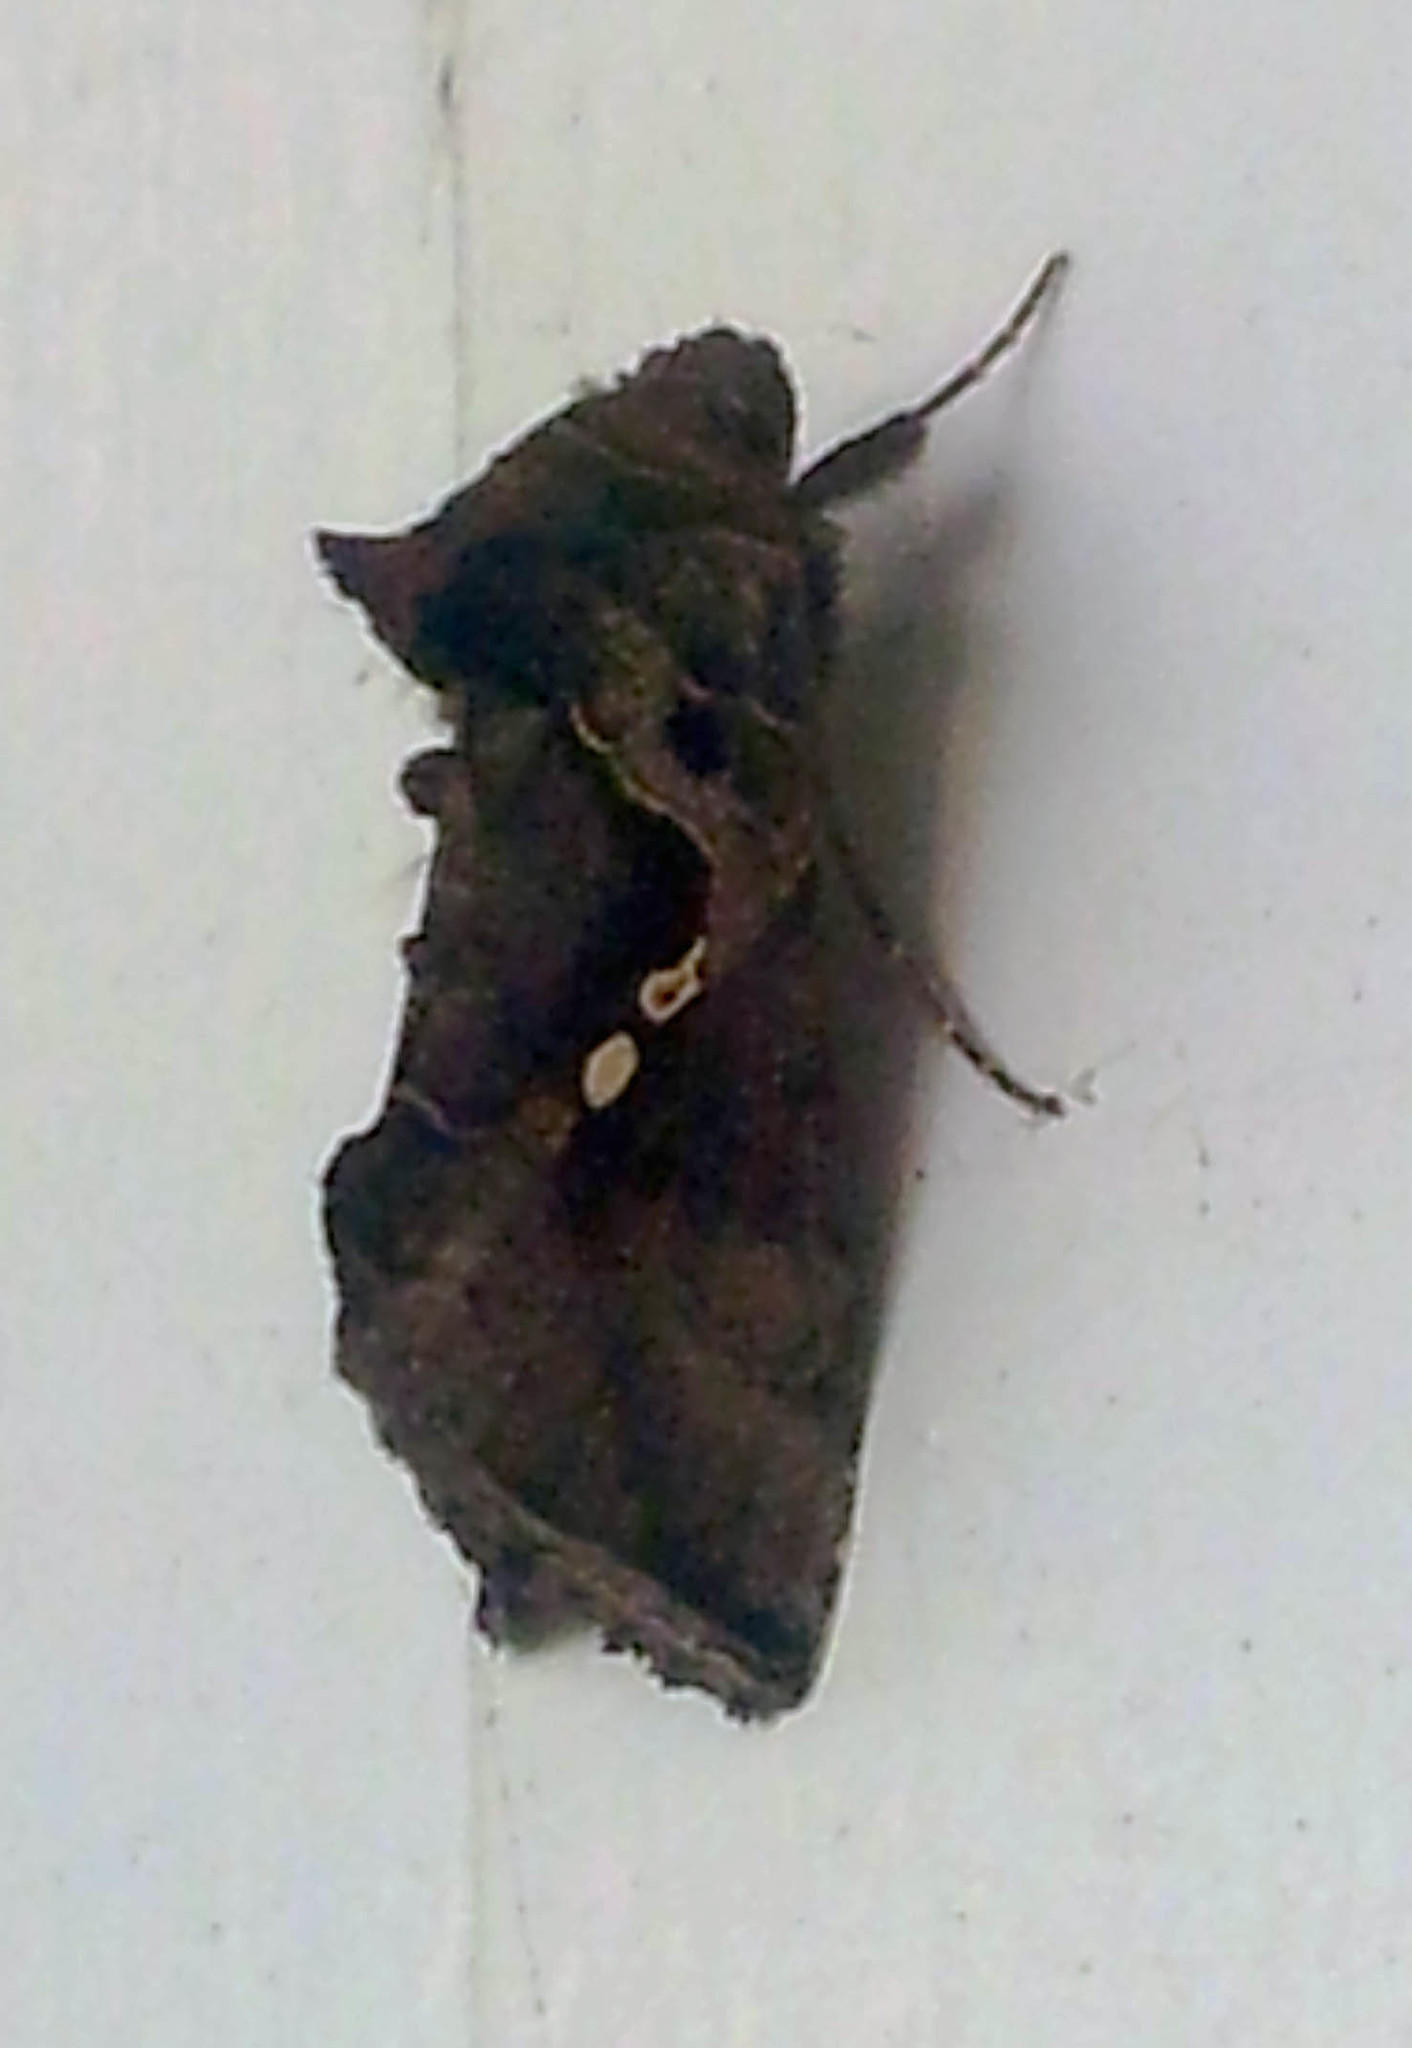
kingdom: Animalia
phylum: Arthropoda
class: Insecta
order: Lepidoptera
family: Noctuidae
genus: Chrysodeixis
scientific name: Chrysodeixis eriosoma
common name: Green garden looper
